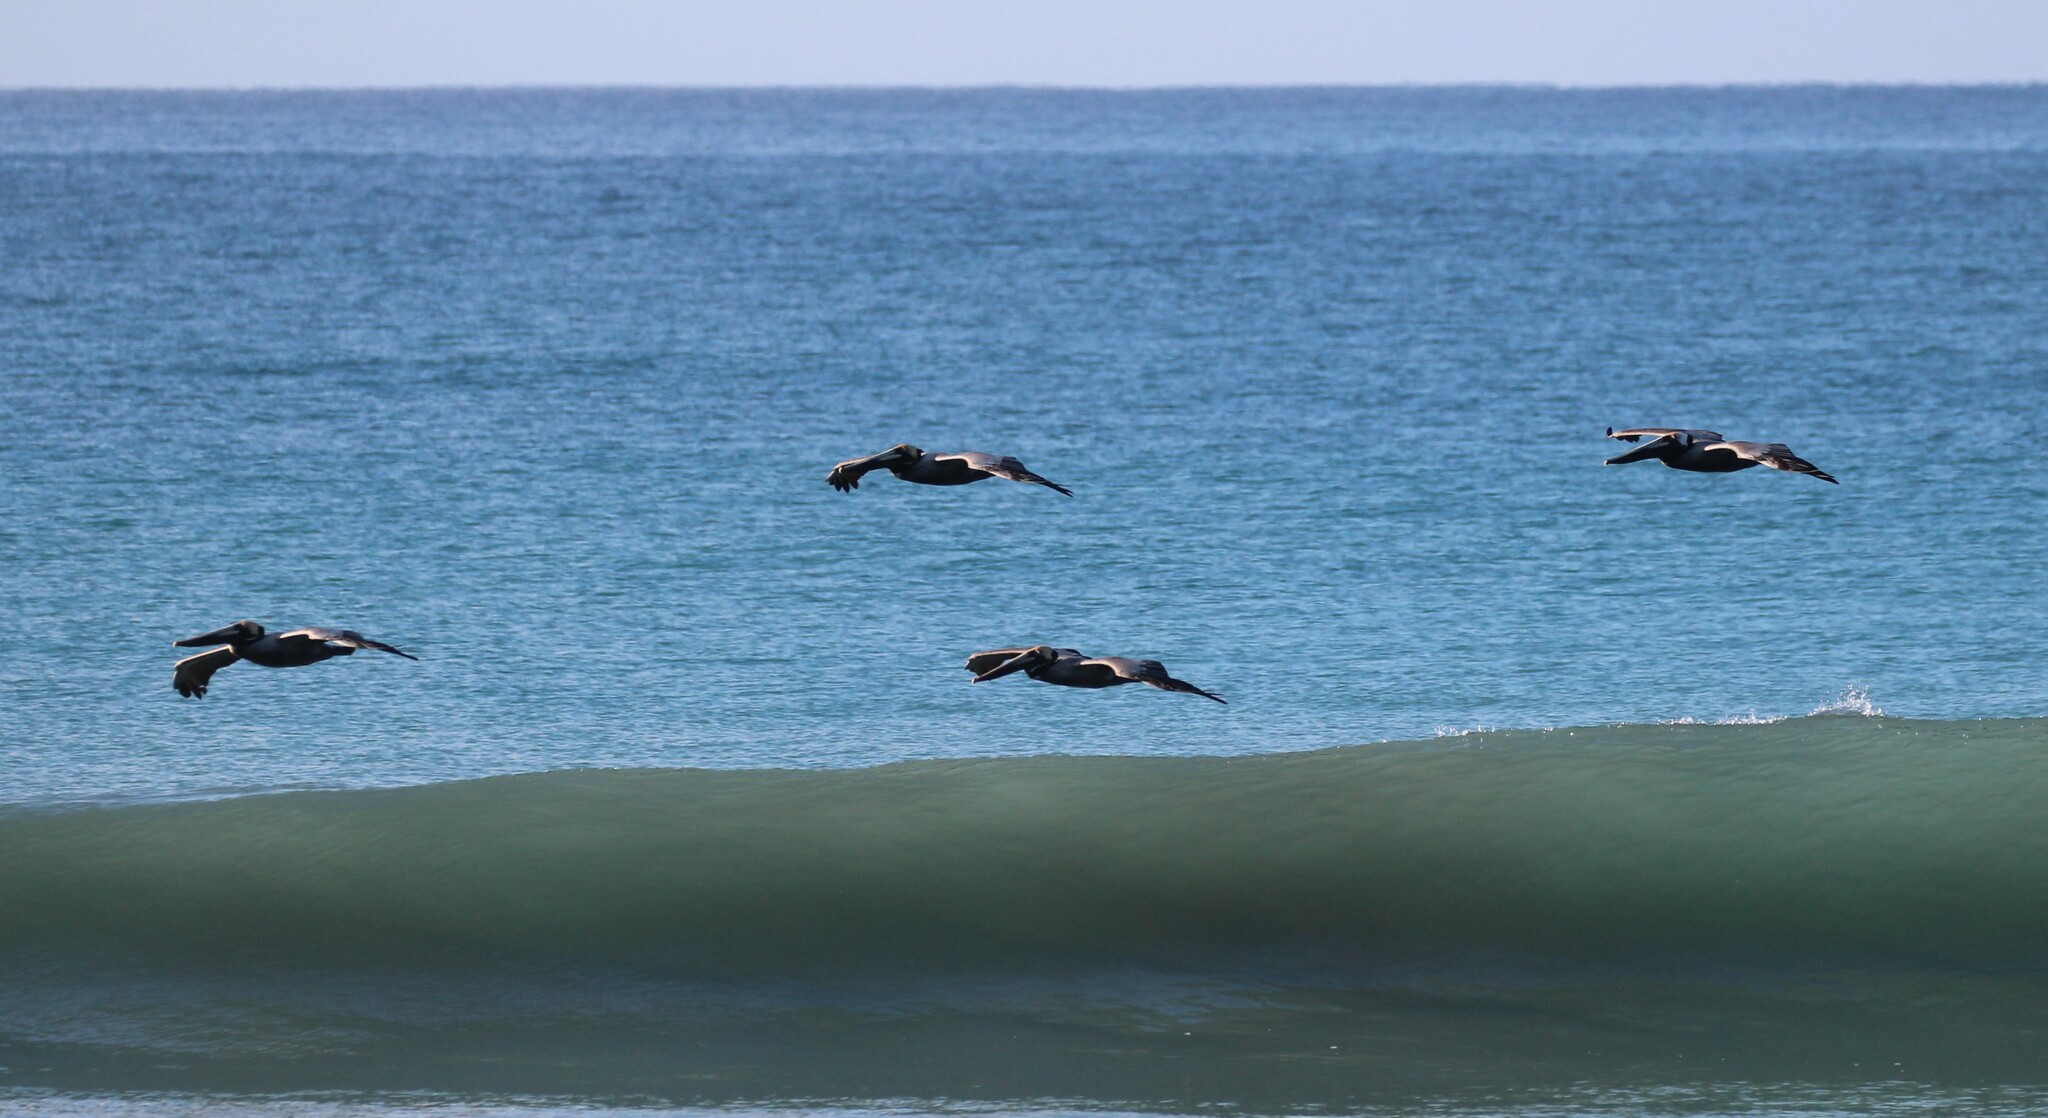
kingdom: Animalia
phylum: Chordata
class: Aves
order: Pelecaniformes
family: Pelecanidae
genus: Pelecanus
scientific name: Pelecanus occidentalis
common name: Brown pelican
